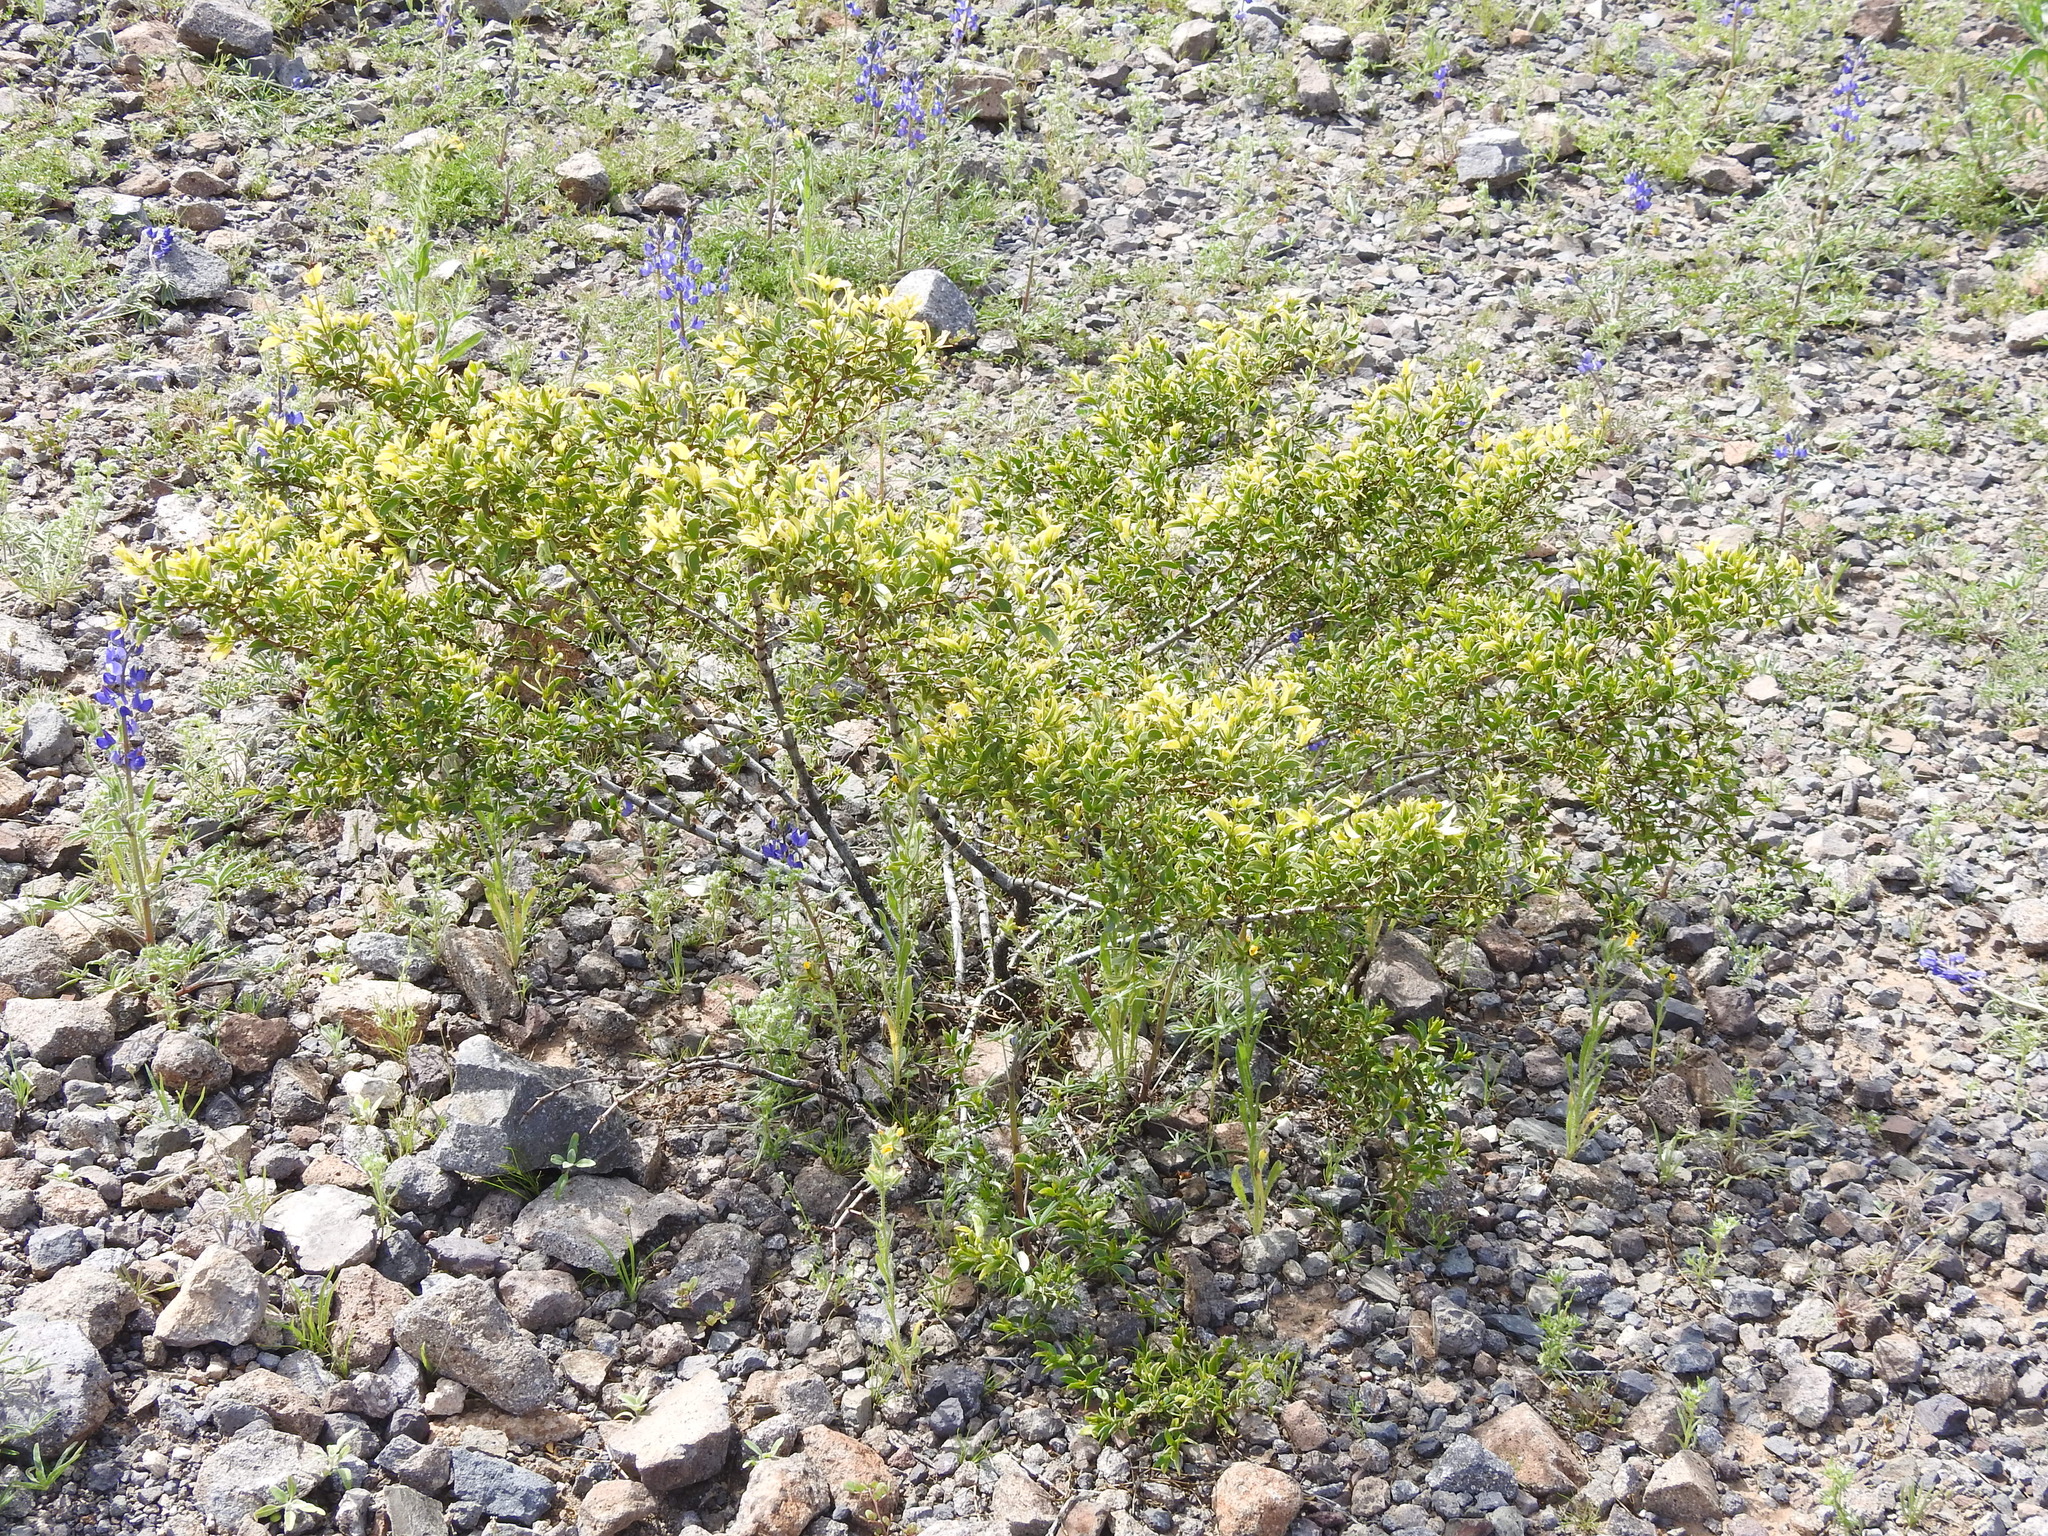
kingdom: Plantae
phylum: Tracheophyta
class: Magnoliopsida
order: Zygophyllales
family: Zygophyllaceae
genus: Larrea
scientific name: Larrea tridentata
